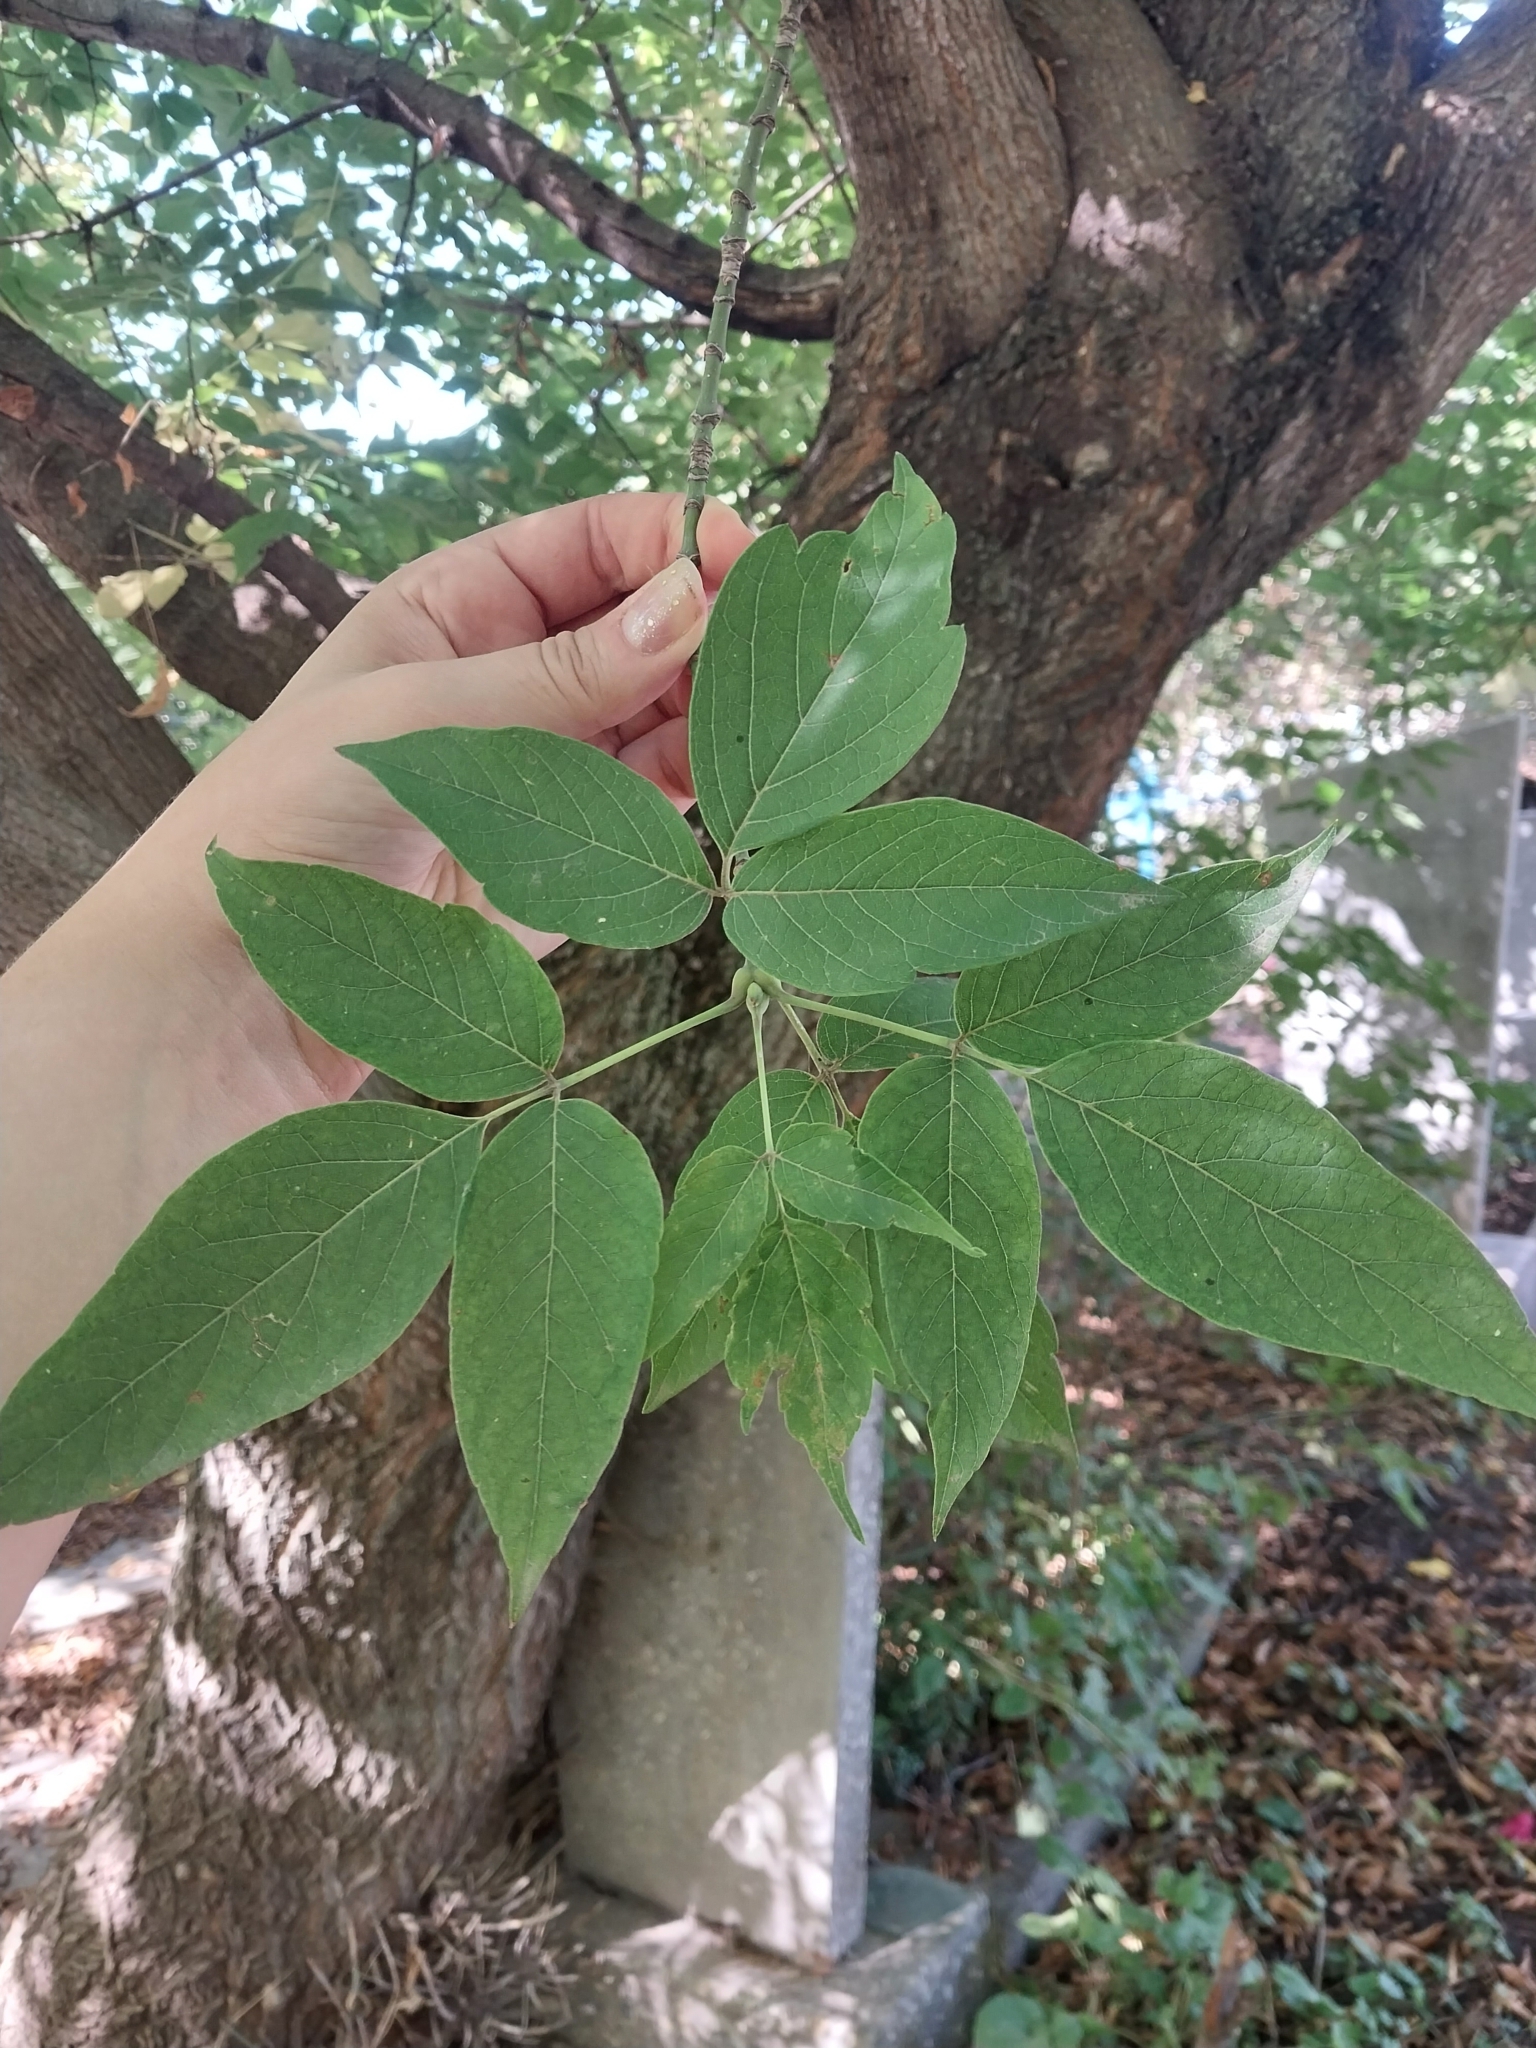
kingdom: Plantae
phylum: Tracheophyta
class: Magnoliopsida
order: Dipsacales
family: Viburnaceae
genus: Sambucus
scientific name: Sambucus nigra
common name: Elder
